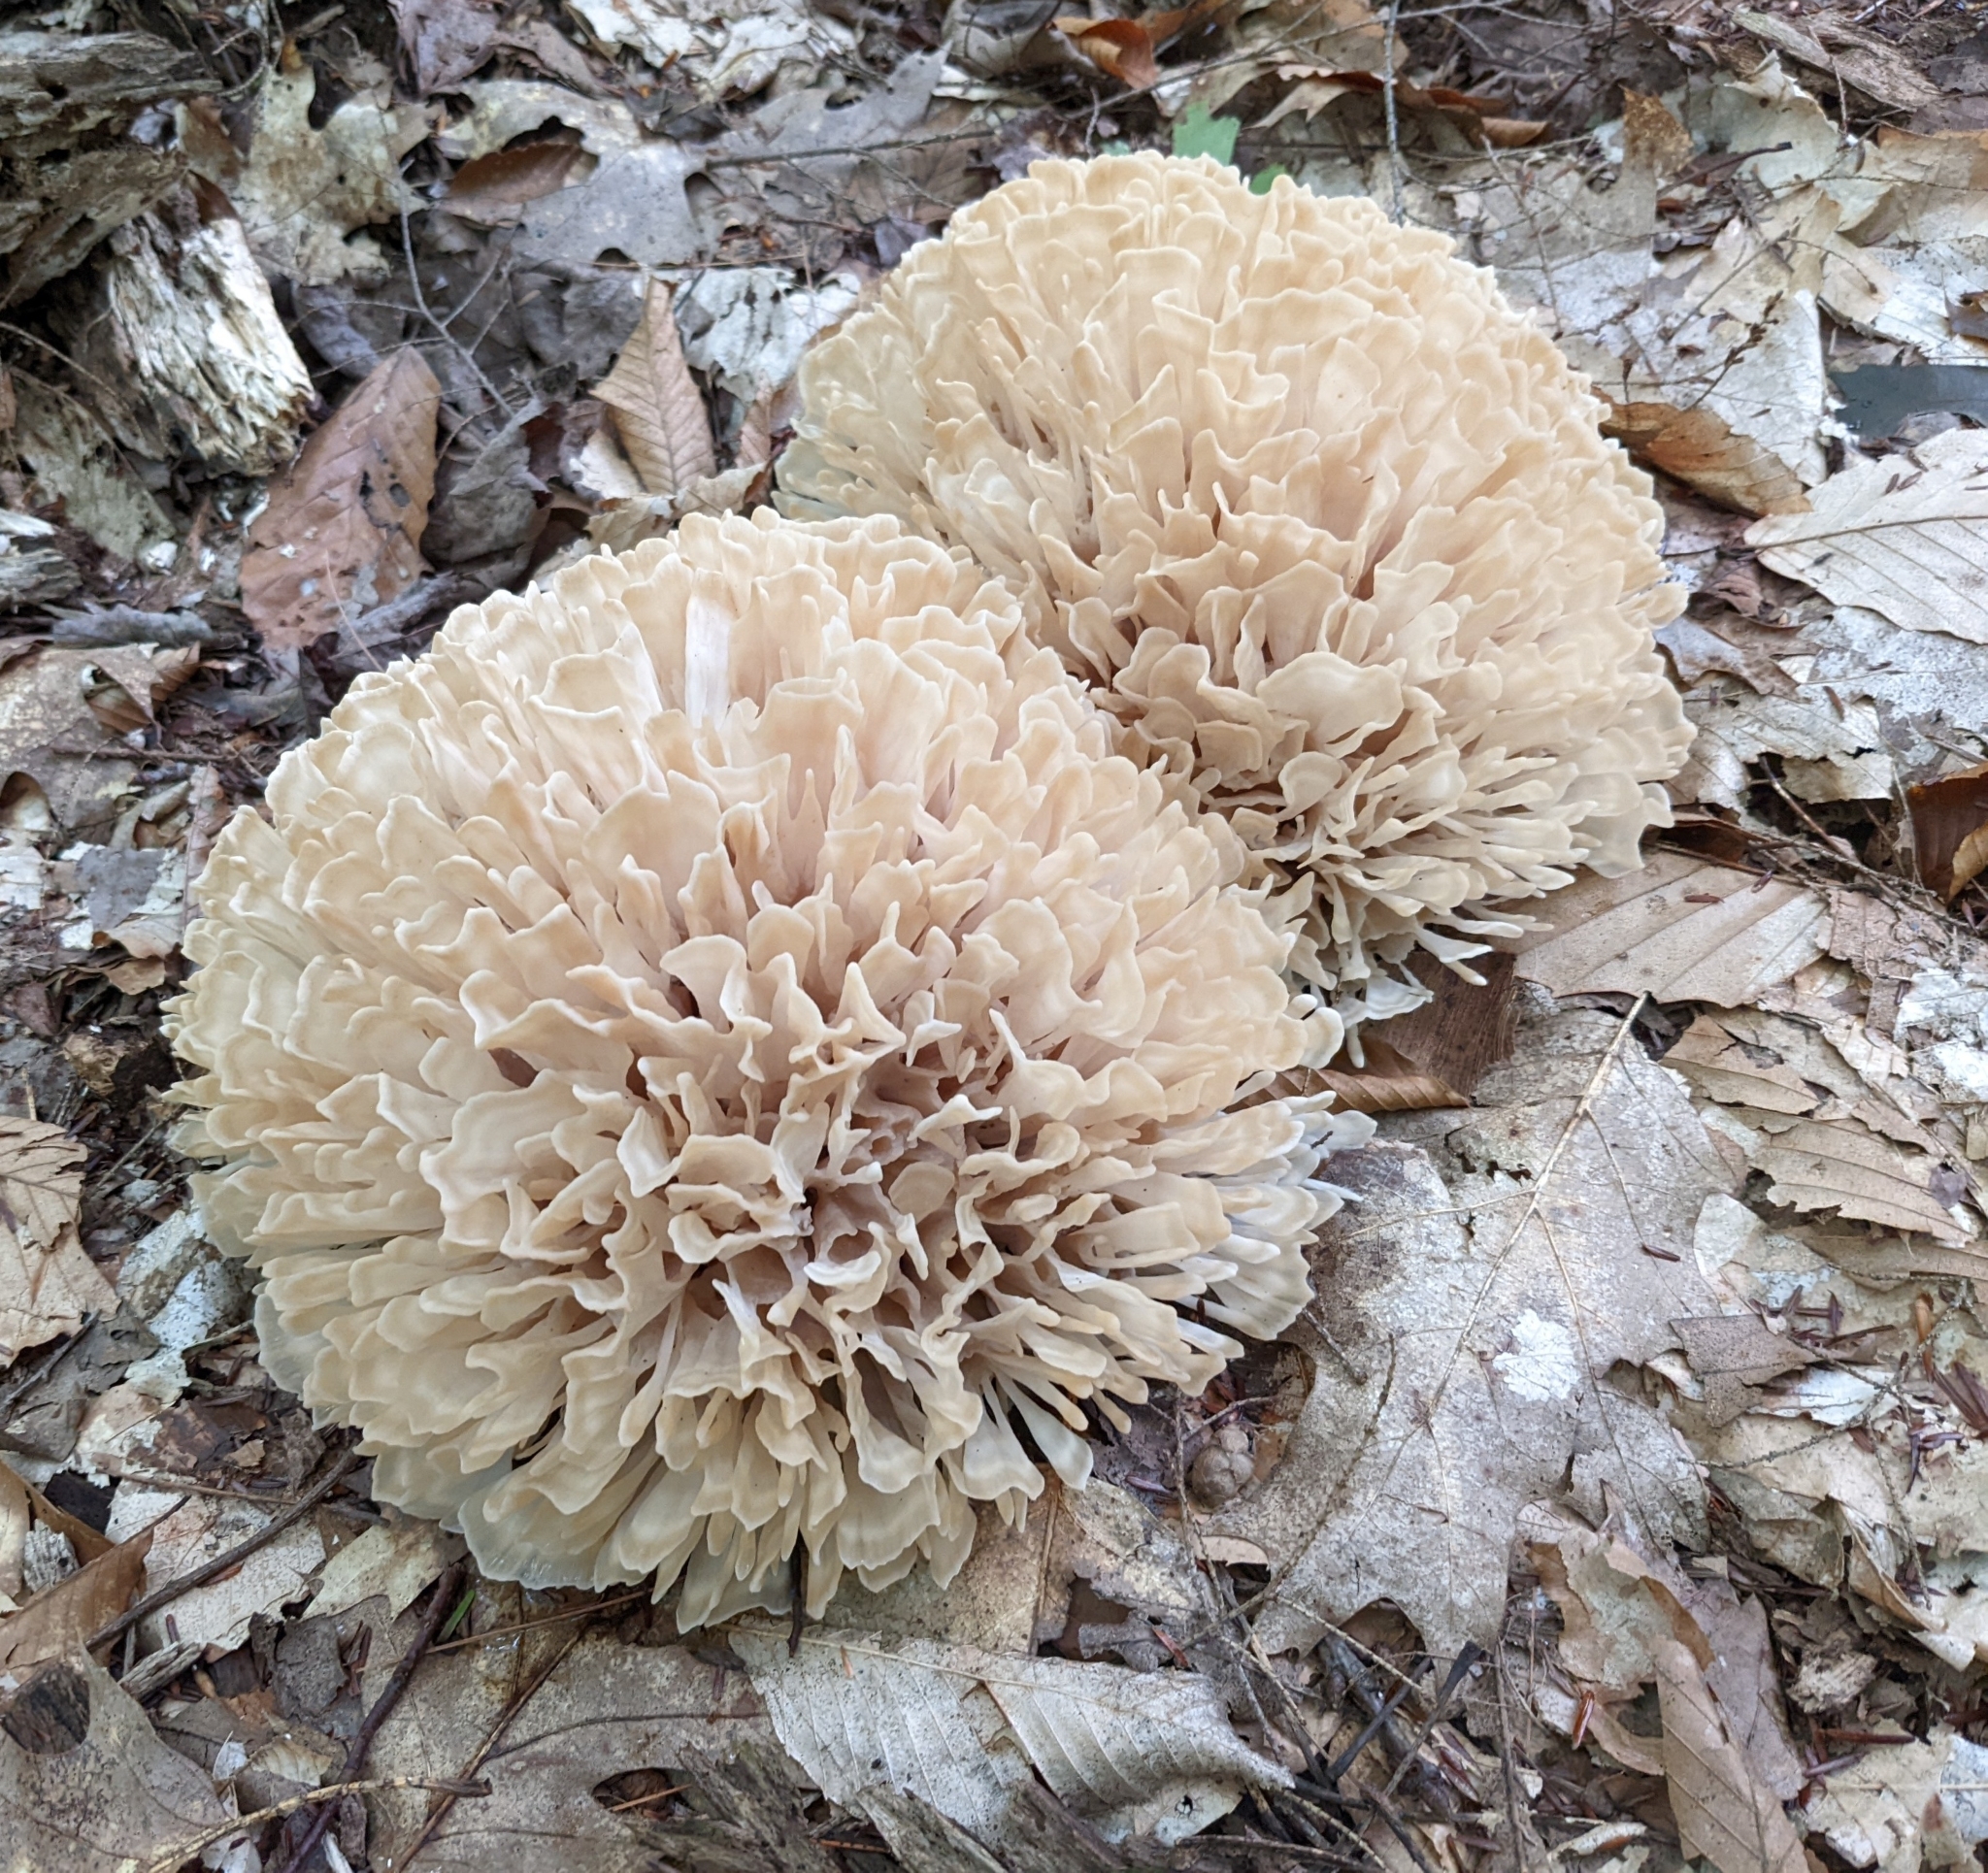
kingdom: Fungi
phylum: Basidiomycota
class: Agaricomycetes
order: Polyporales
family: Sparassidaceae
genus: Sparassis
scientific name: Sparassis spathulata
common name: Eastern cauliflower mushroom
